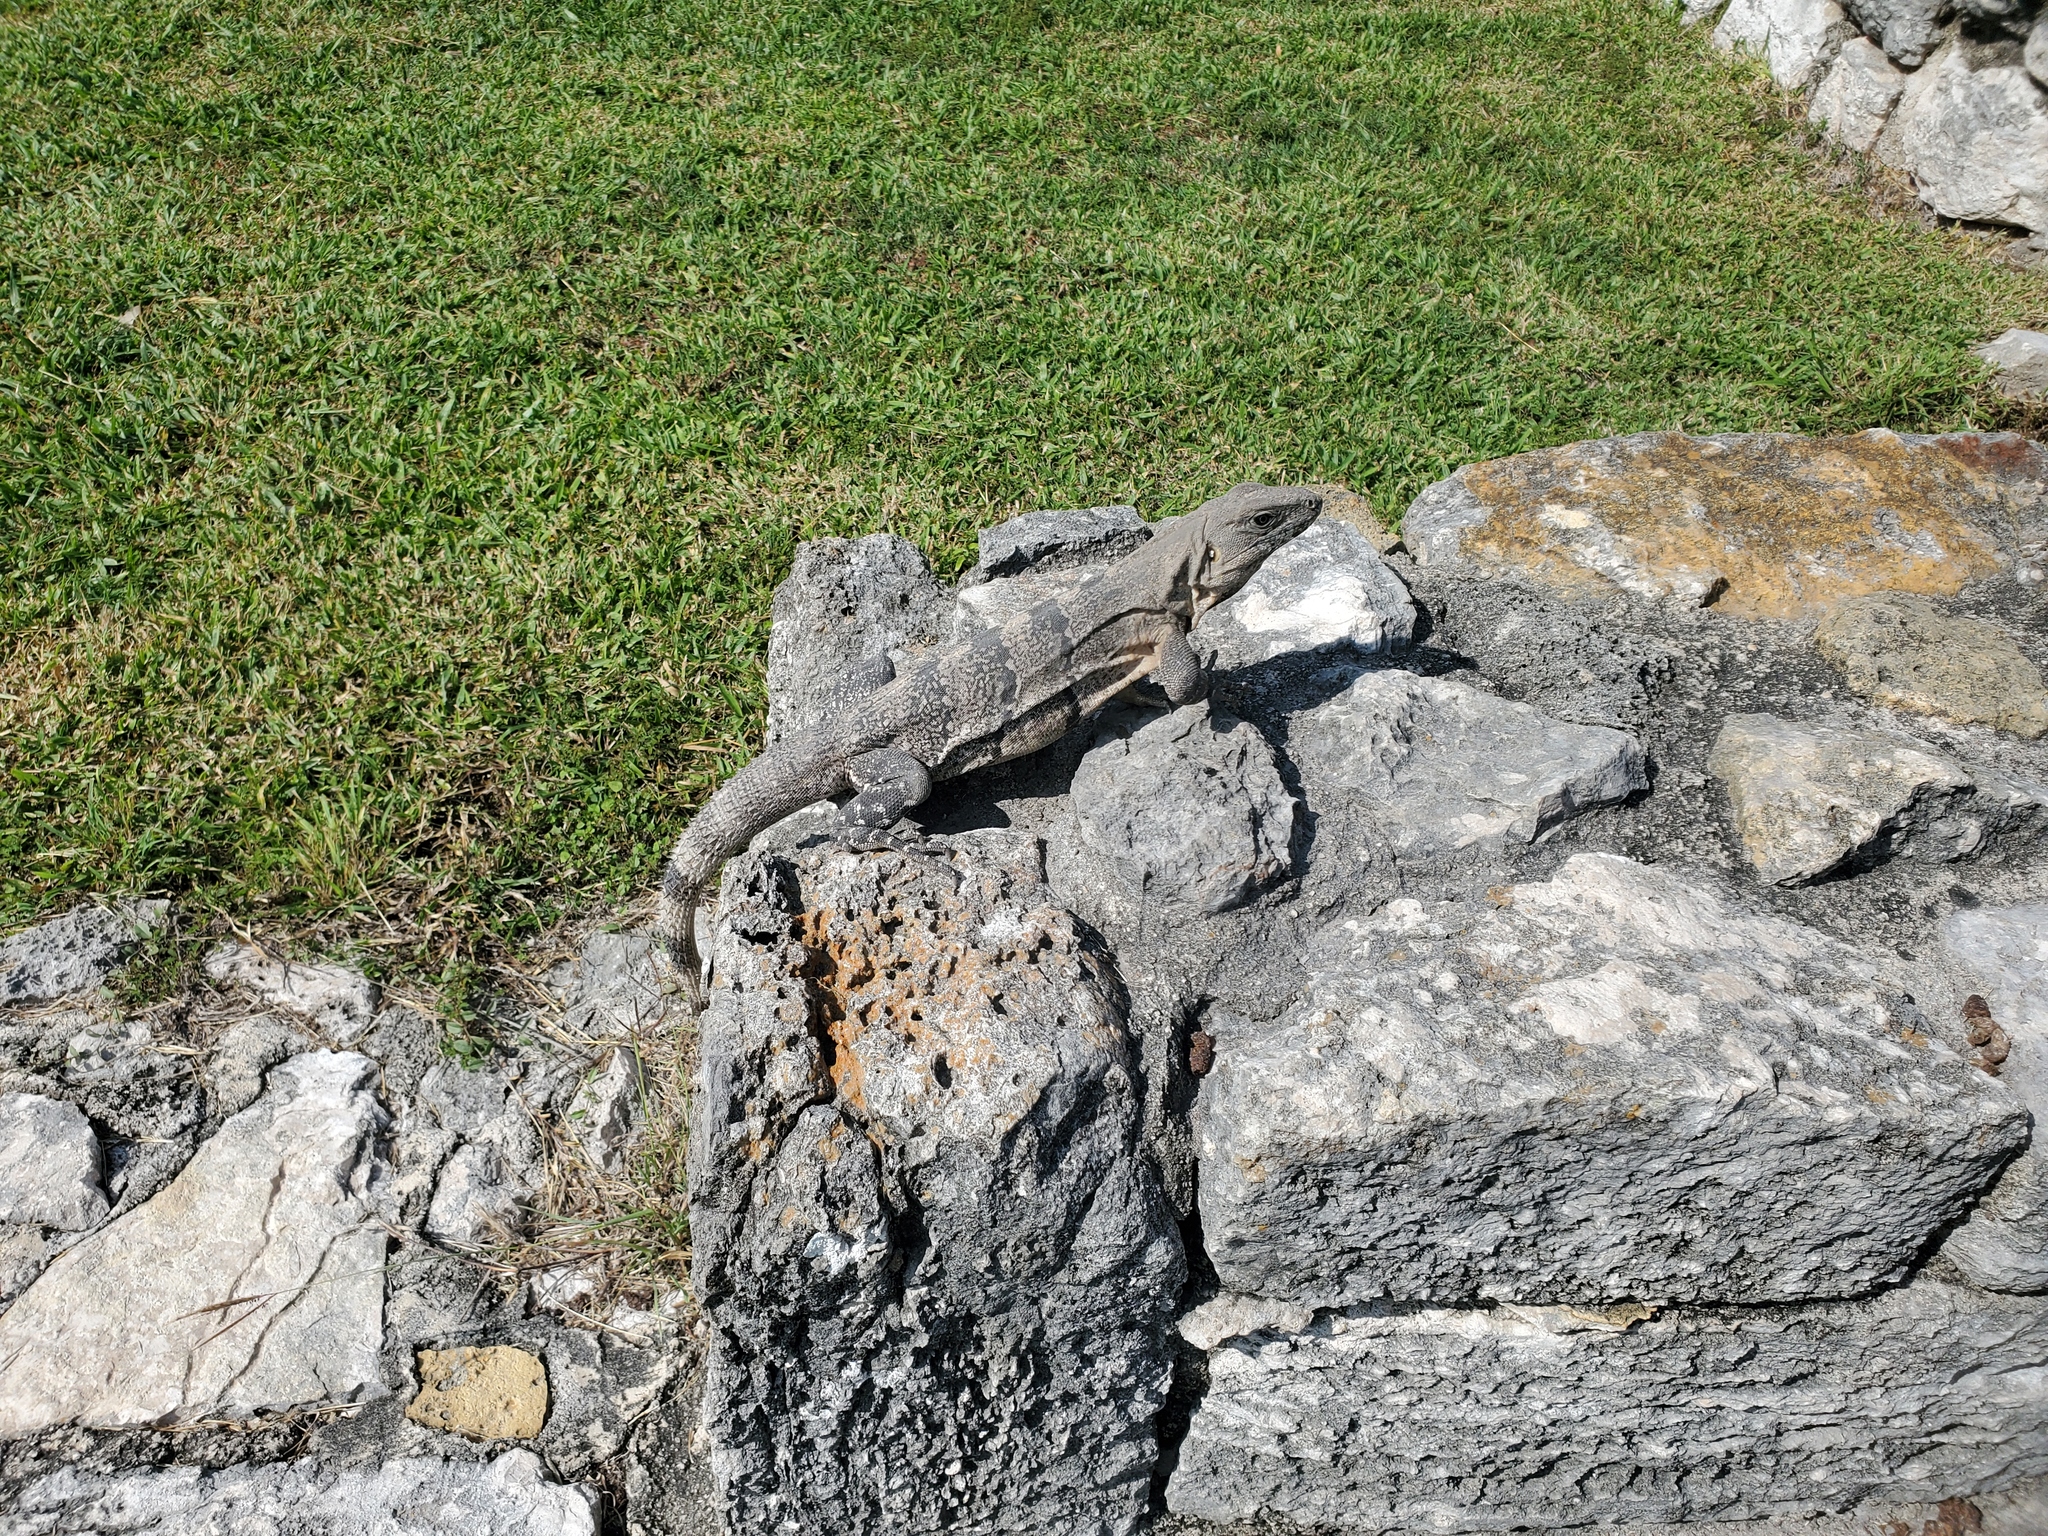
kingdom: Animalia
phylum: Chordata
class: Squamata
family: Iguanidae
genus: Ctenosaura
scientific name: Ctenosaura similis
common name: Black spiny-tailed iguana
